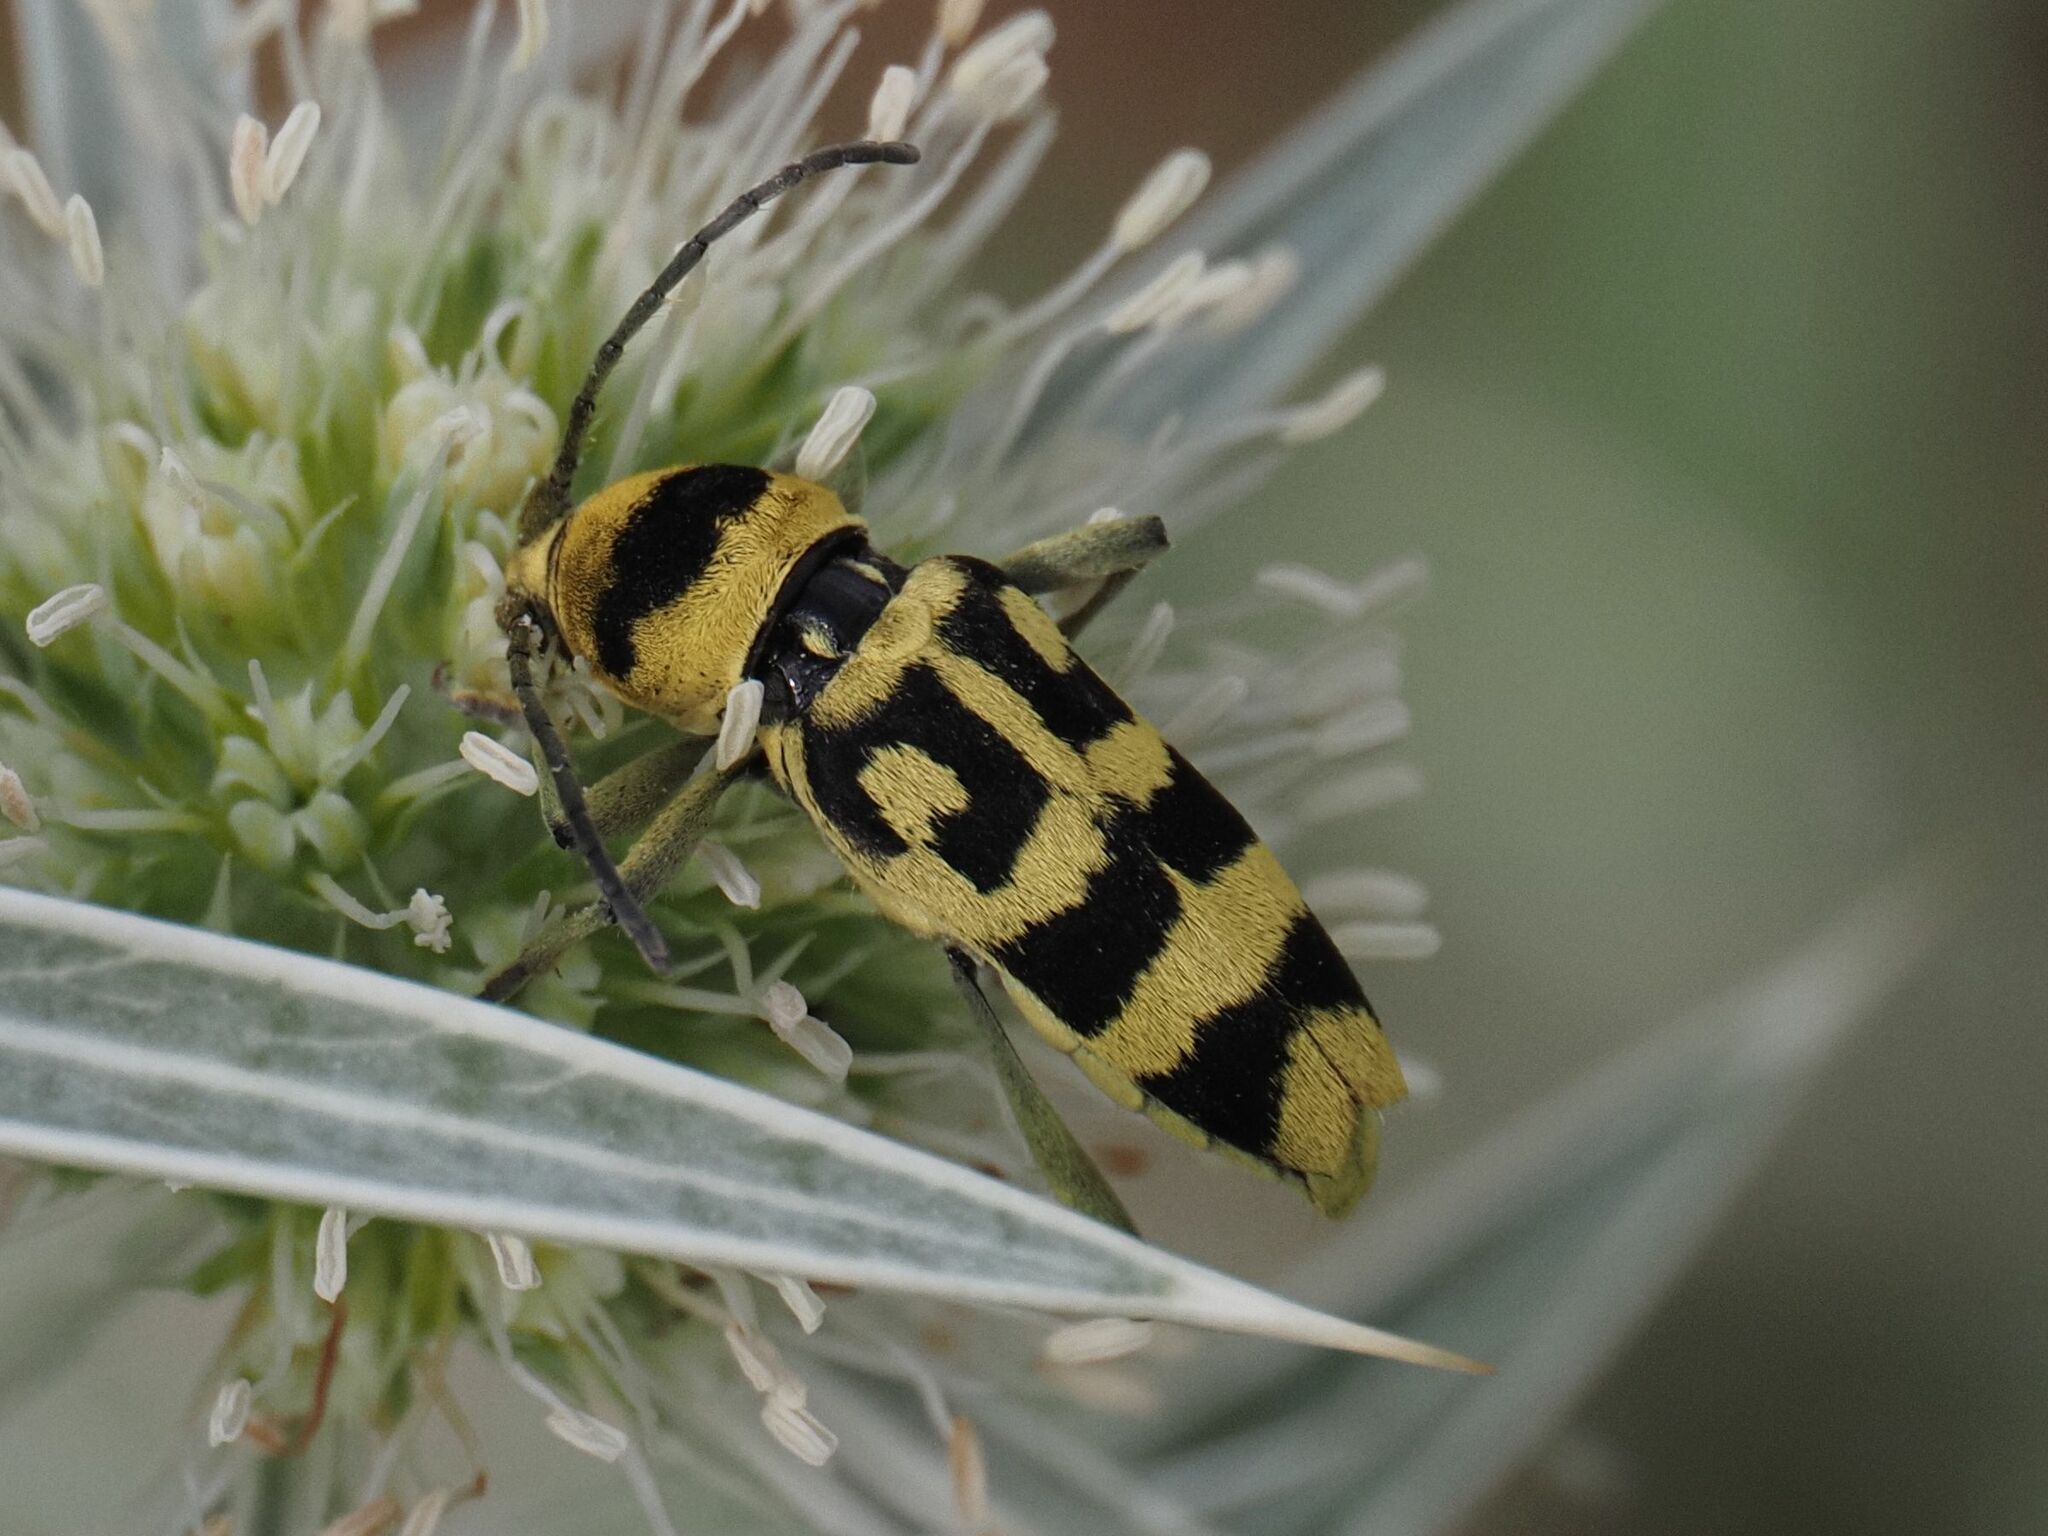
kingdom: Animalia
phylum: Arthropoda
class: Insecta
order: Coleoptera
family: Cerambycidae
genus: Chlorophorus
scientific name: Chlorophorus varius
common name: Grape wood borer
